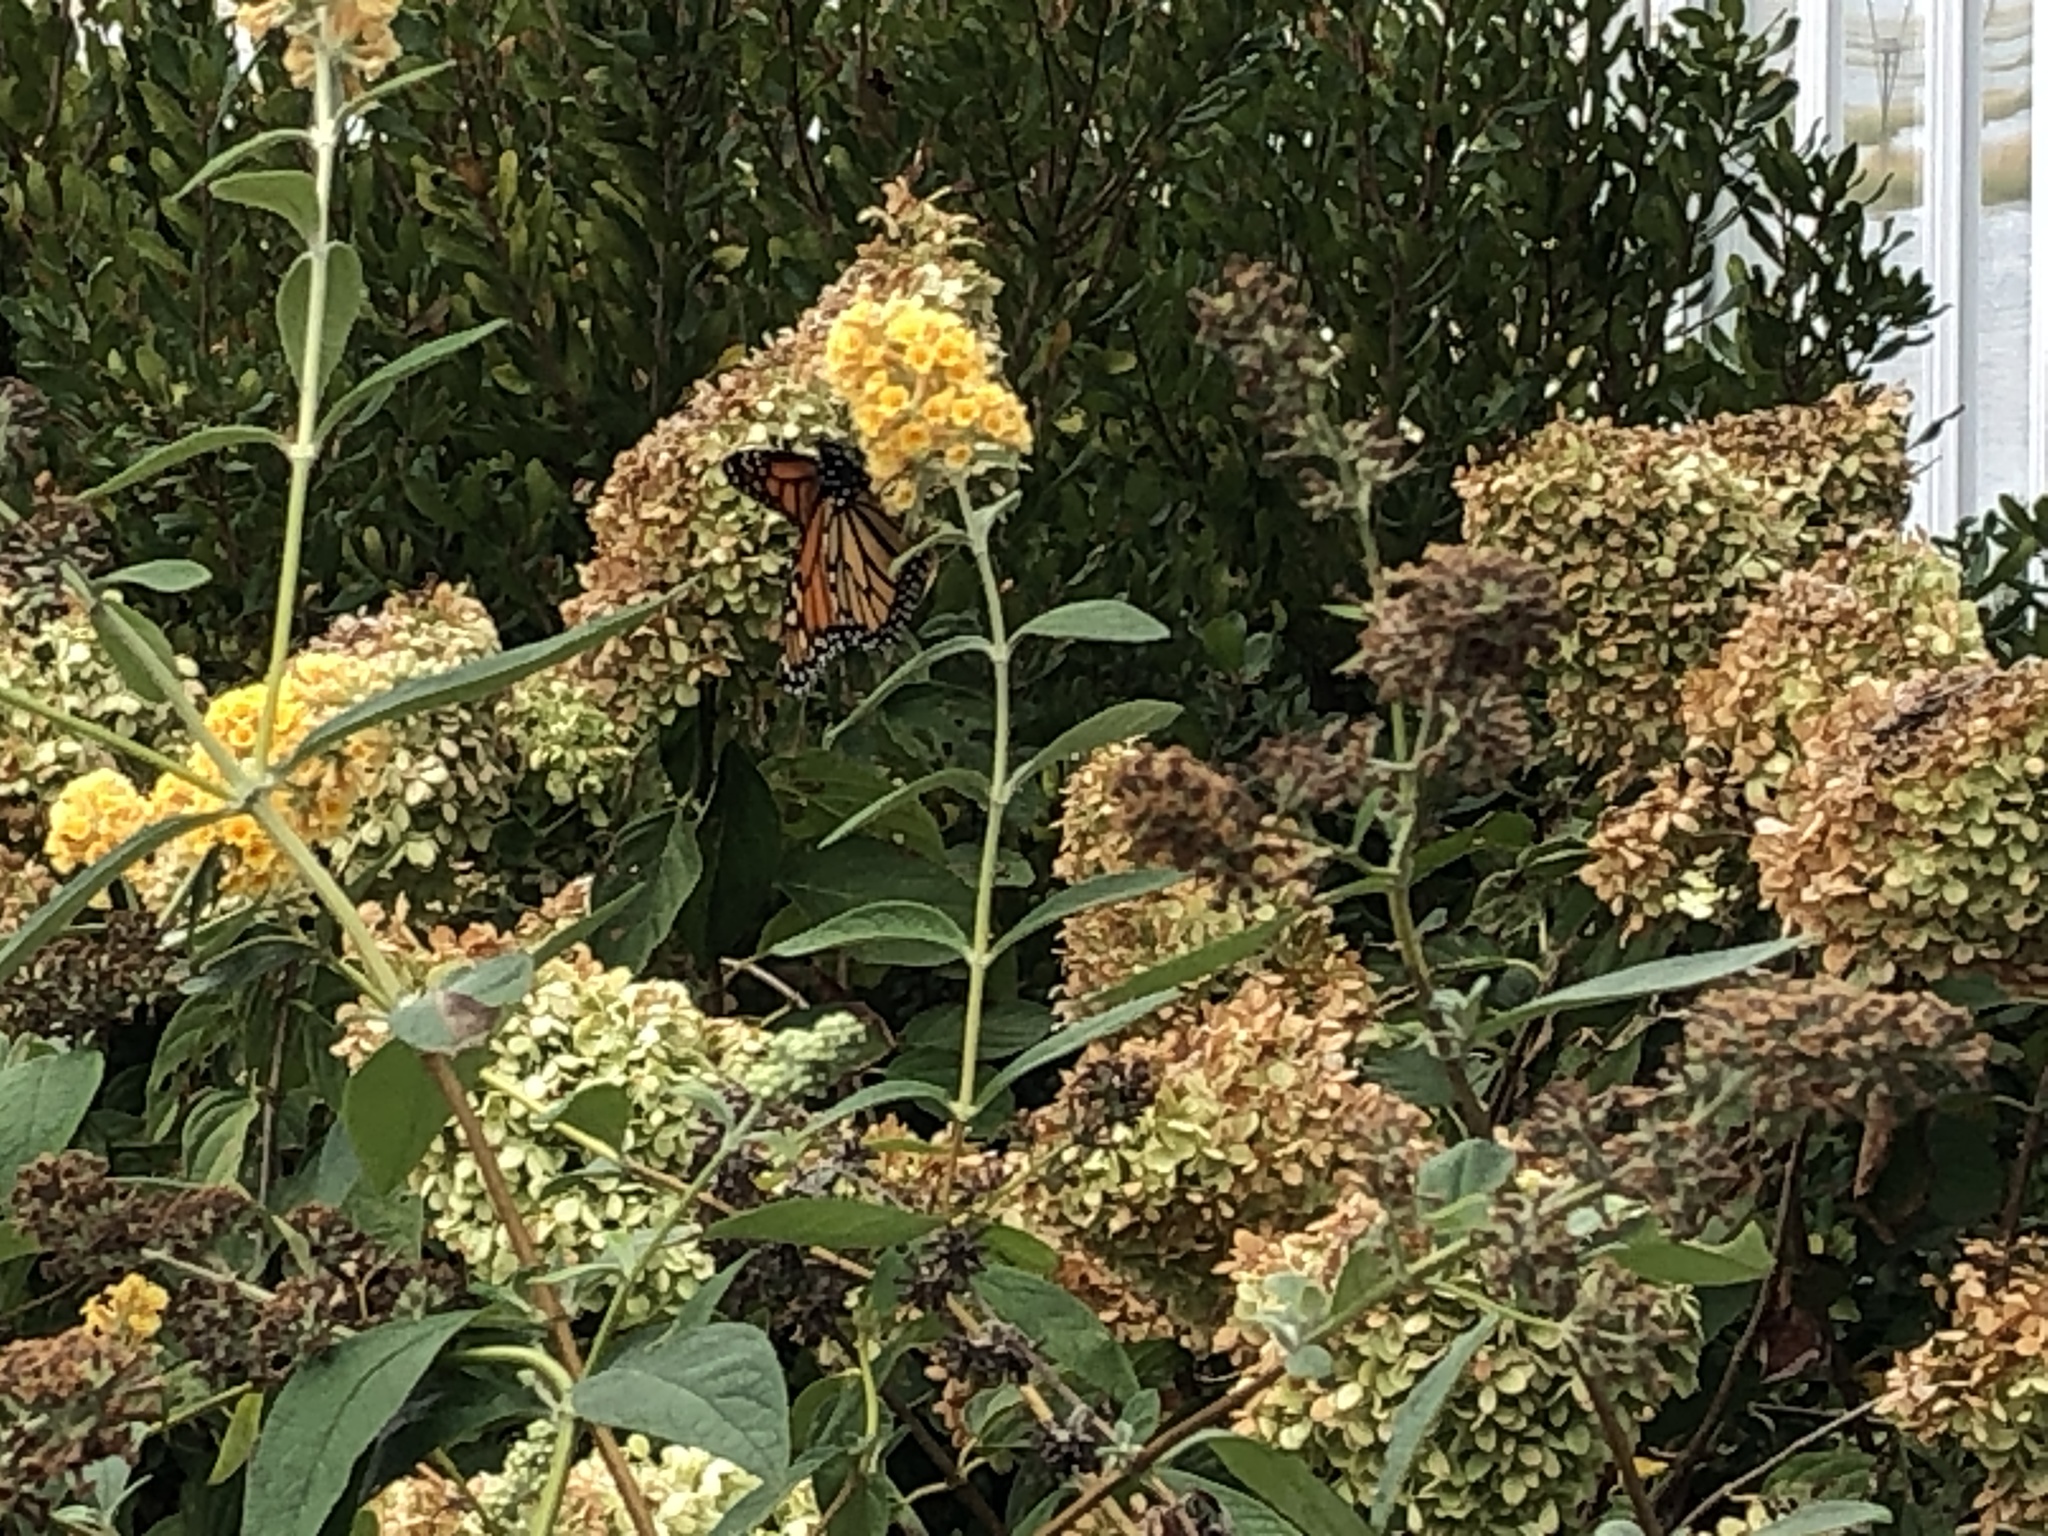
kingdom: Animalia
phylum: Arthropoda
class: Insecta
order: Lepidoptera
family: Nymphalidae
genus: Danaus
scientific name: Danaus plexippus
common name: Monarch
